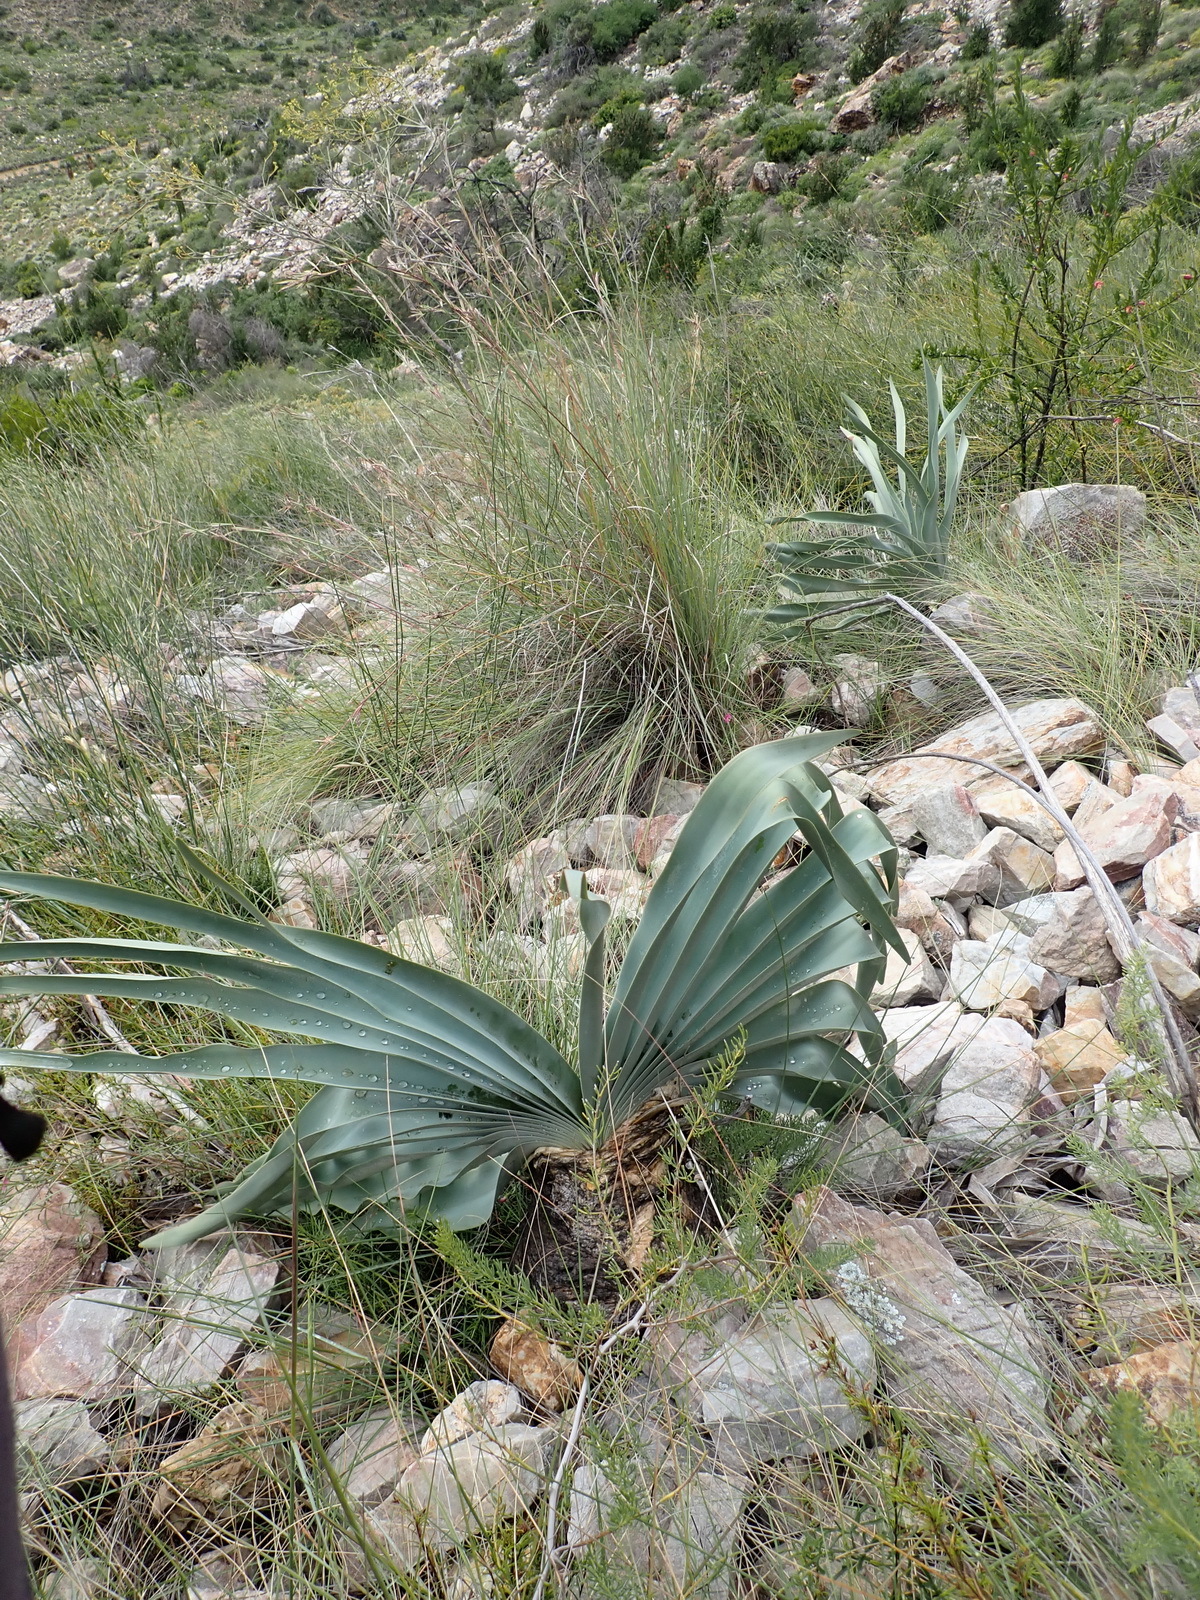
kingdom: Plantae
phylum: Tracheophyta
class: Liliopsida
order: Asparagales
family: Amaryllidaceae
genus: Boophone
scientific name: Boophone disticha
